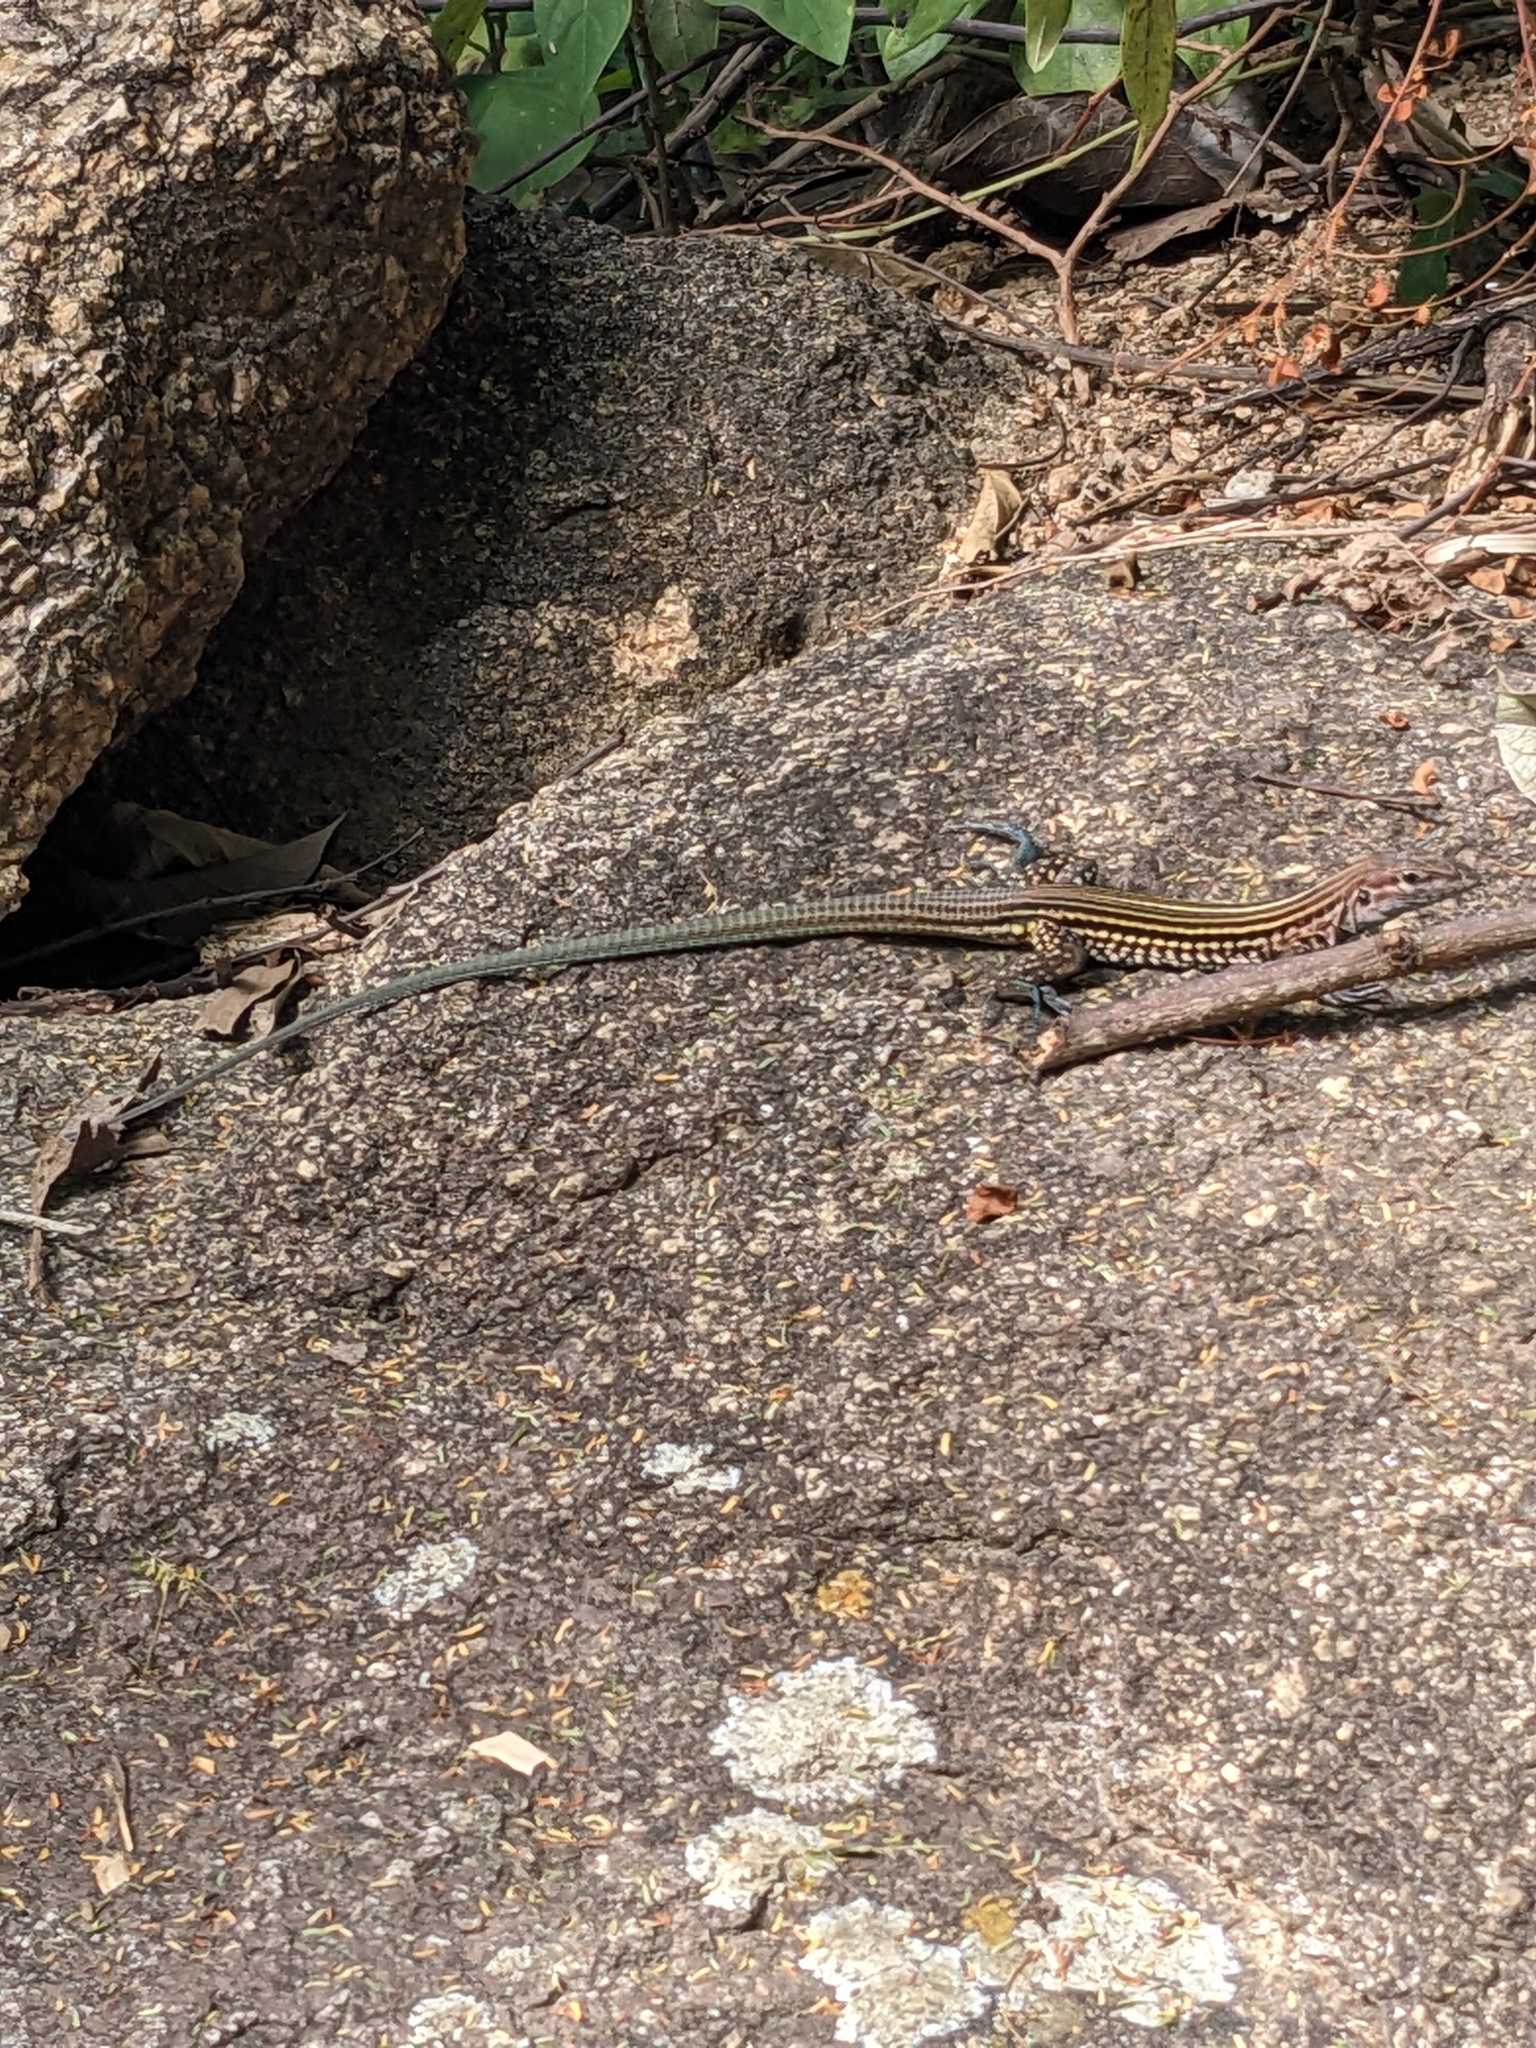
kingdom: Animalia
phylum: Chordata
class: Squamata
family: Teiidae
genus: Aspidoscelis
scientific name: Aspidoscelis guttatus
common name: Mexican racerunner
